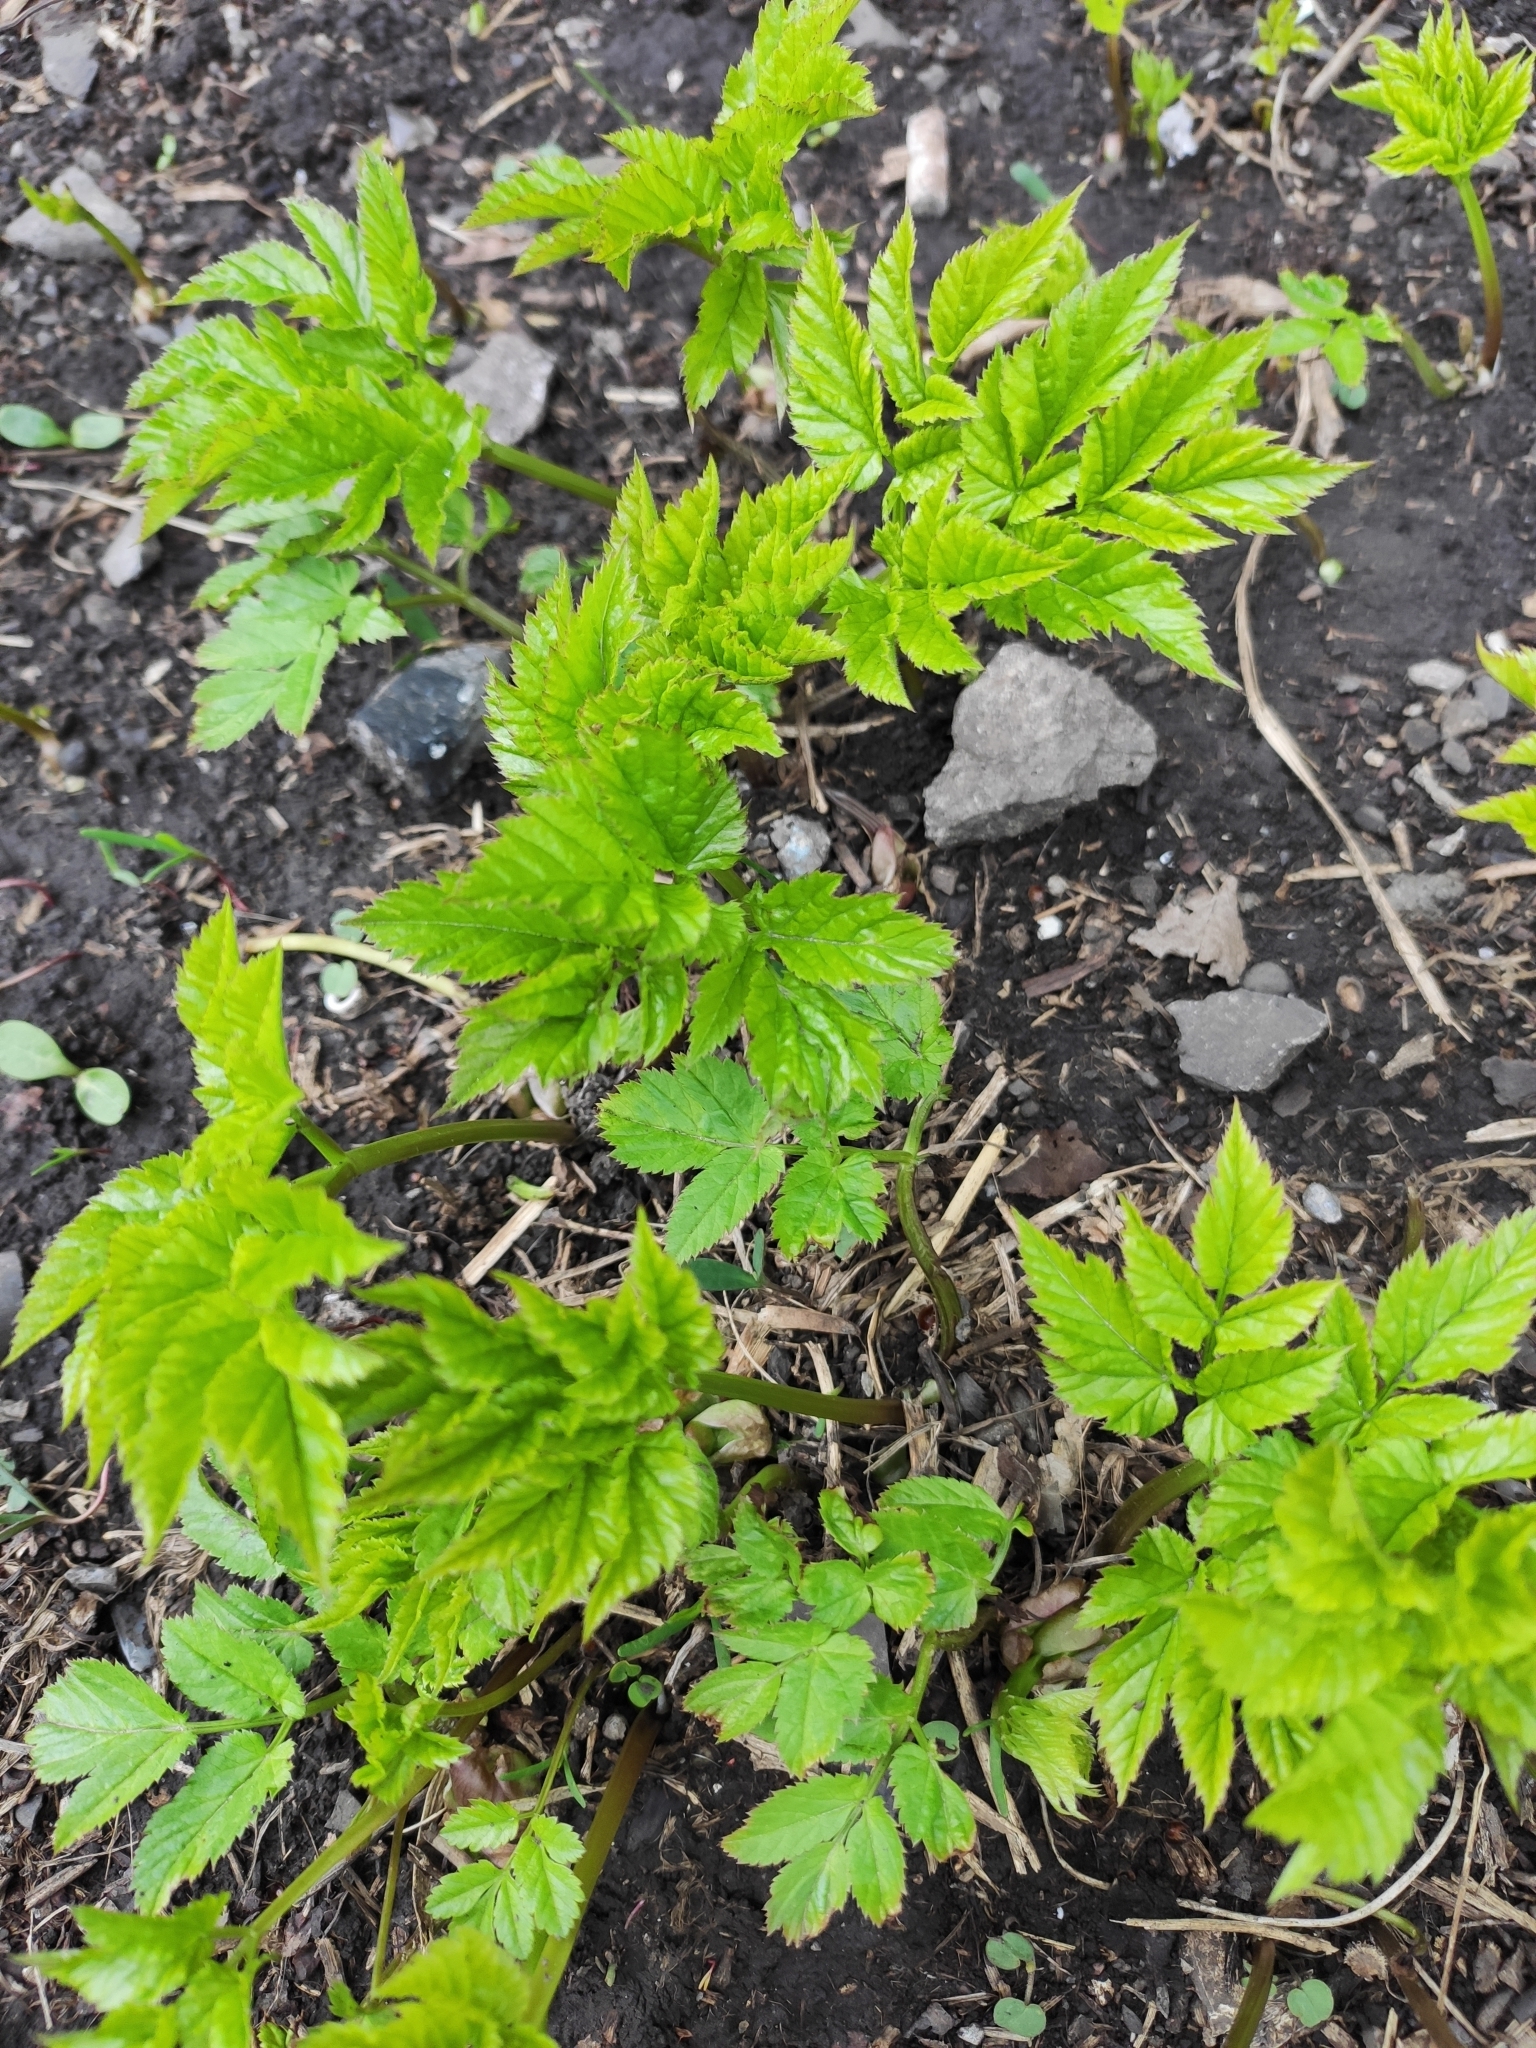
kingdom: Plantae
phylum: Tracheophyta
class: Magnoliopsida
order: Apiales
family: Apiaceae
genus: Aegopodium
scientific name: Aegopodium podagraria
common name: Ground-elder
